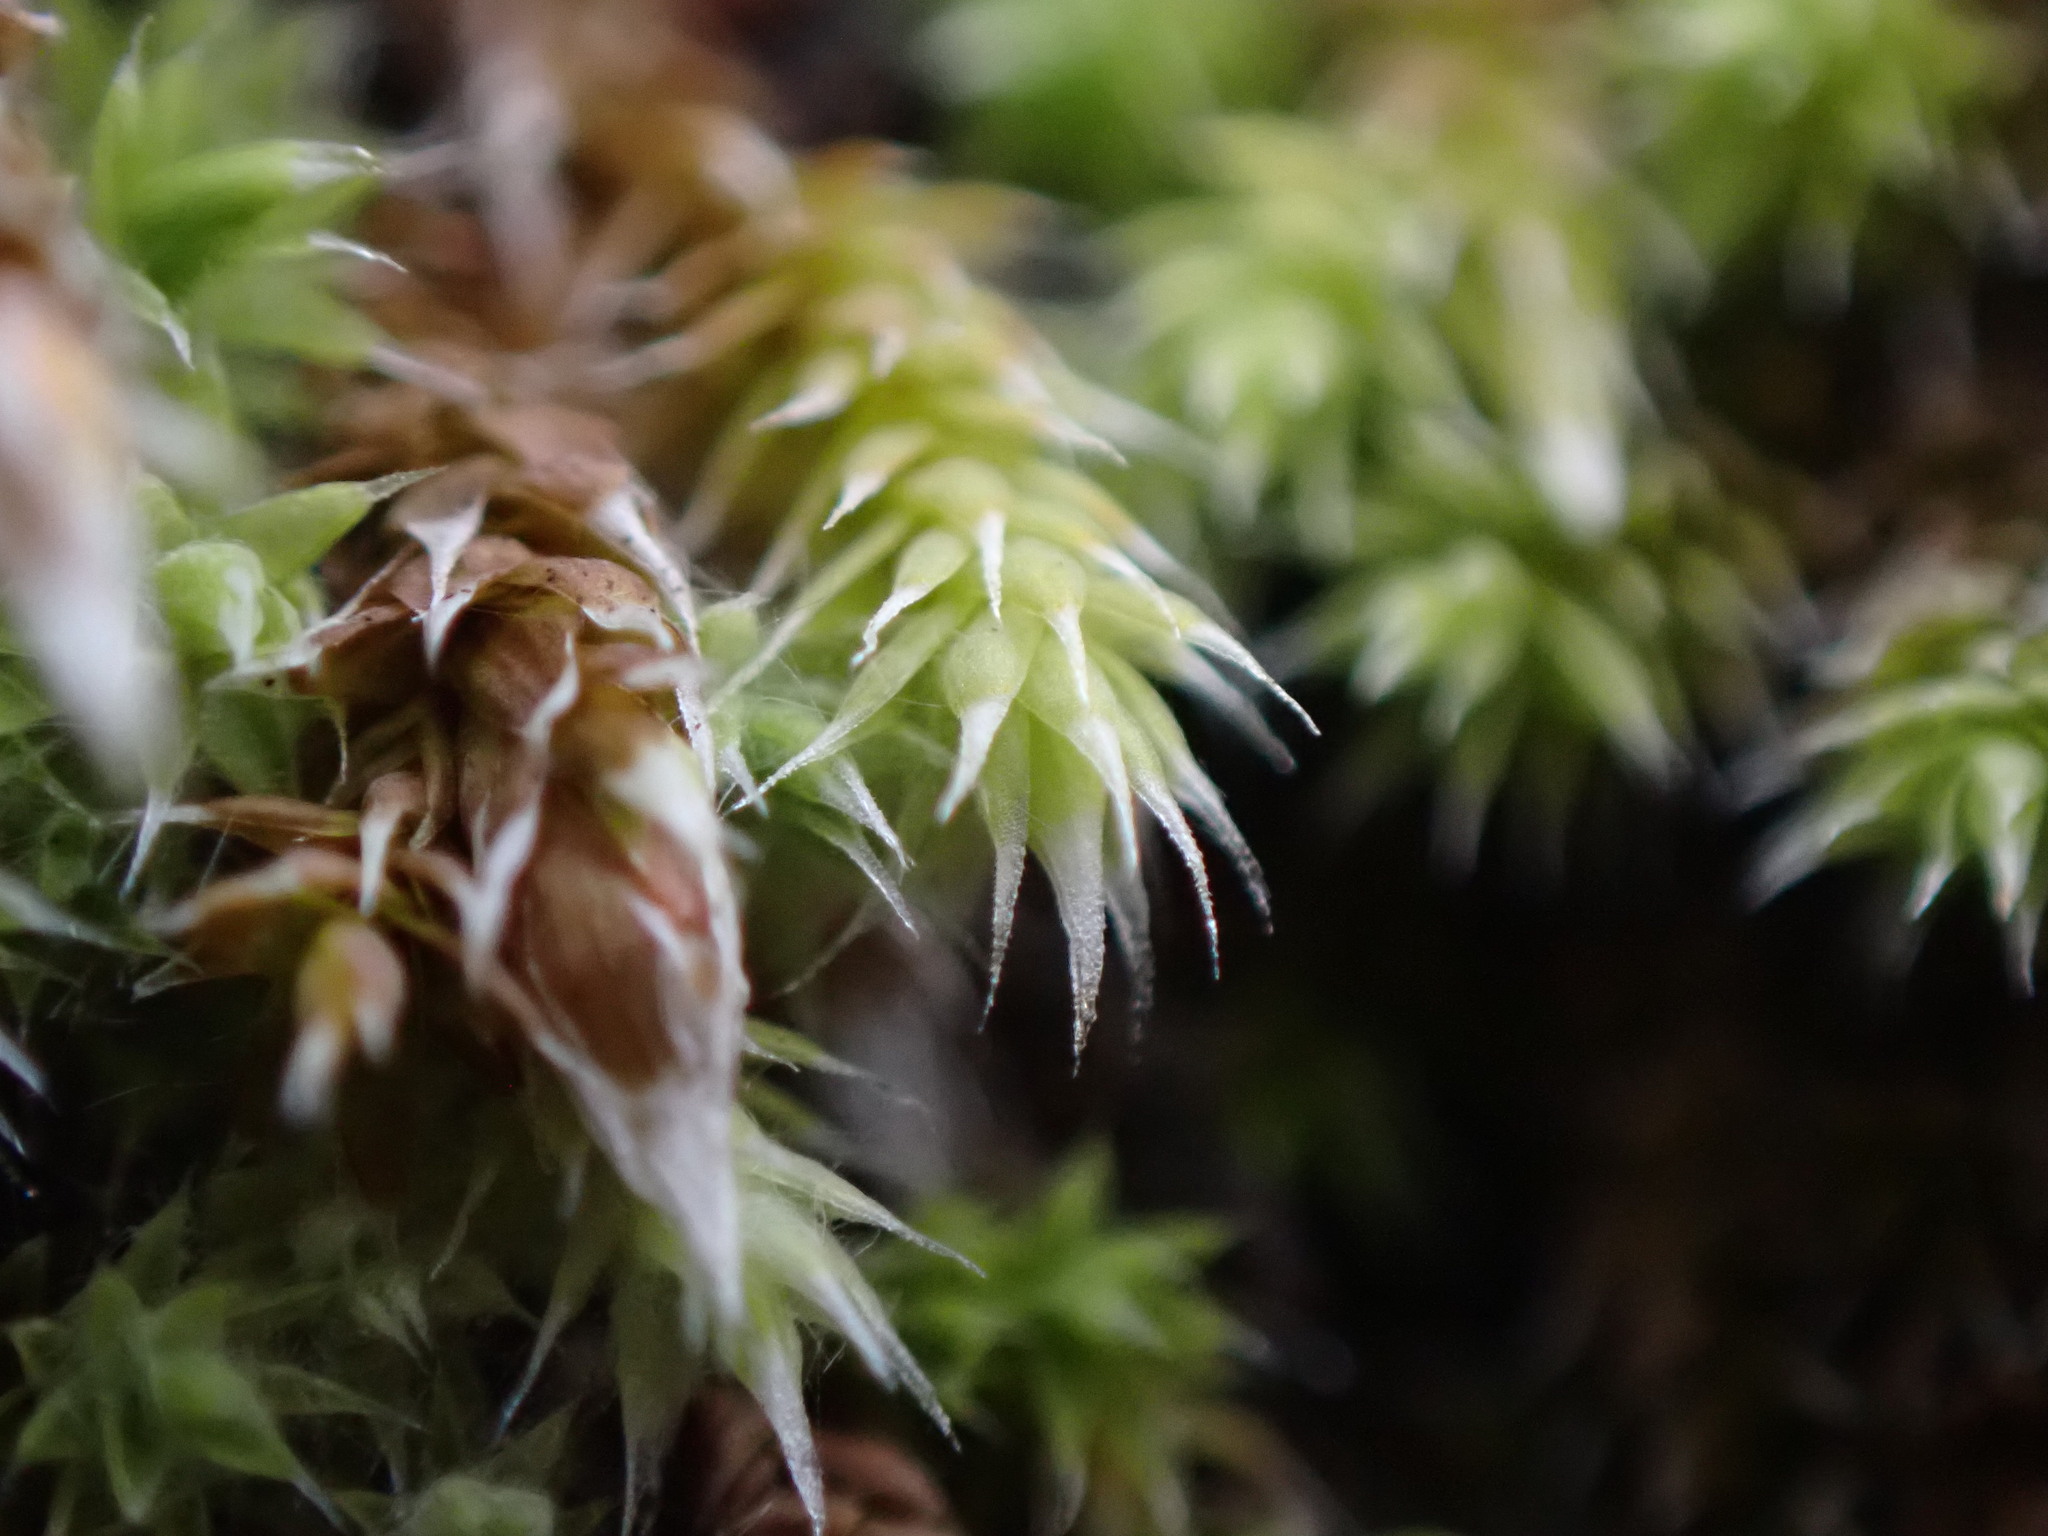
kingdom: Plantae
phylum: Bryophyta
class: Bryopsida
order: Hedwigiales
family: Hedwigiaceae
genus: Hedwigia
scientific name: Hedwigia stellata
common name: Starry hoar-moss
